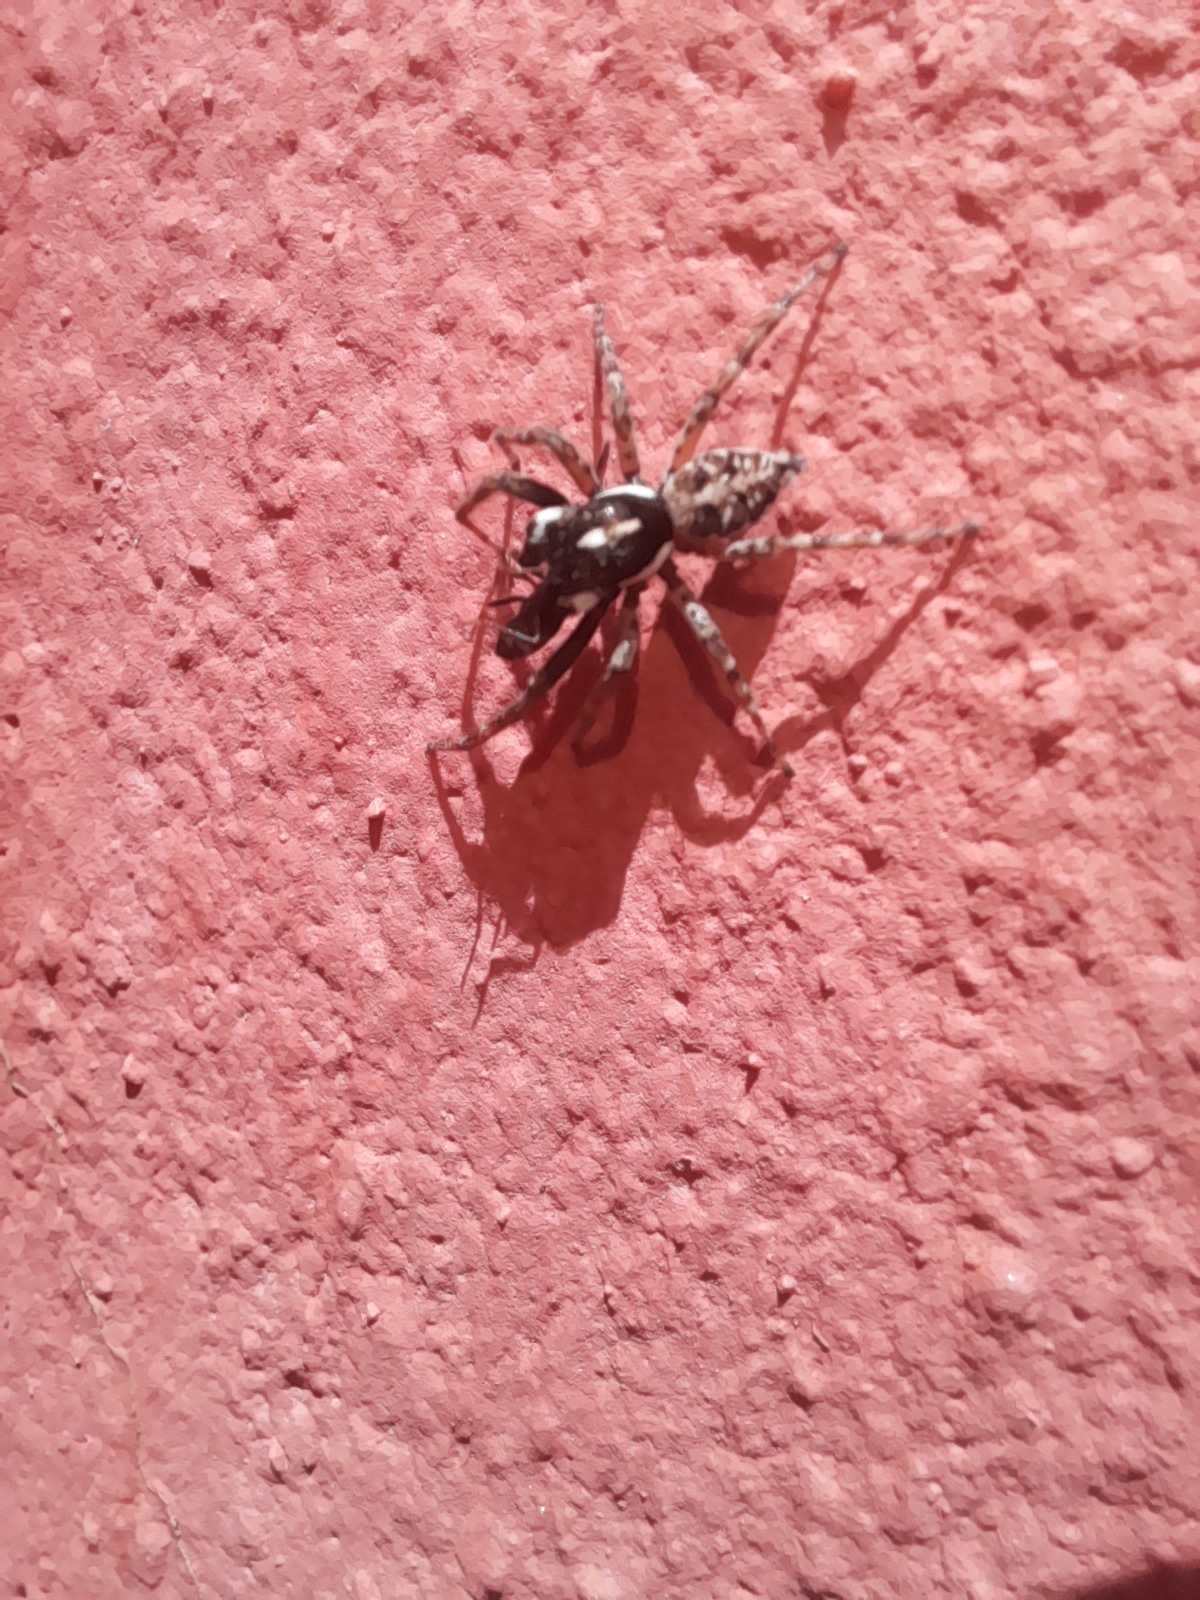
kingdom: Animalia
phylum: Arthropoda
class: Arachnida
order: Araneae
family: Salticidae
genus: Menemerus
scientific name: Menemerus semilimbatus
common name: Jumping spider
